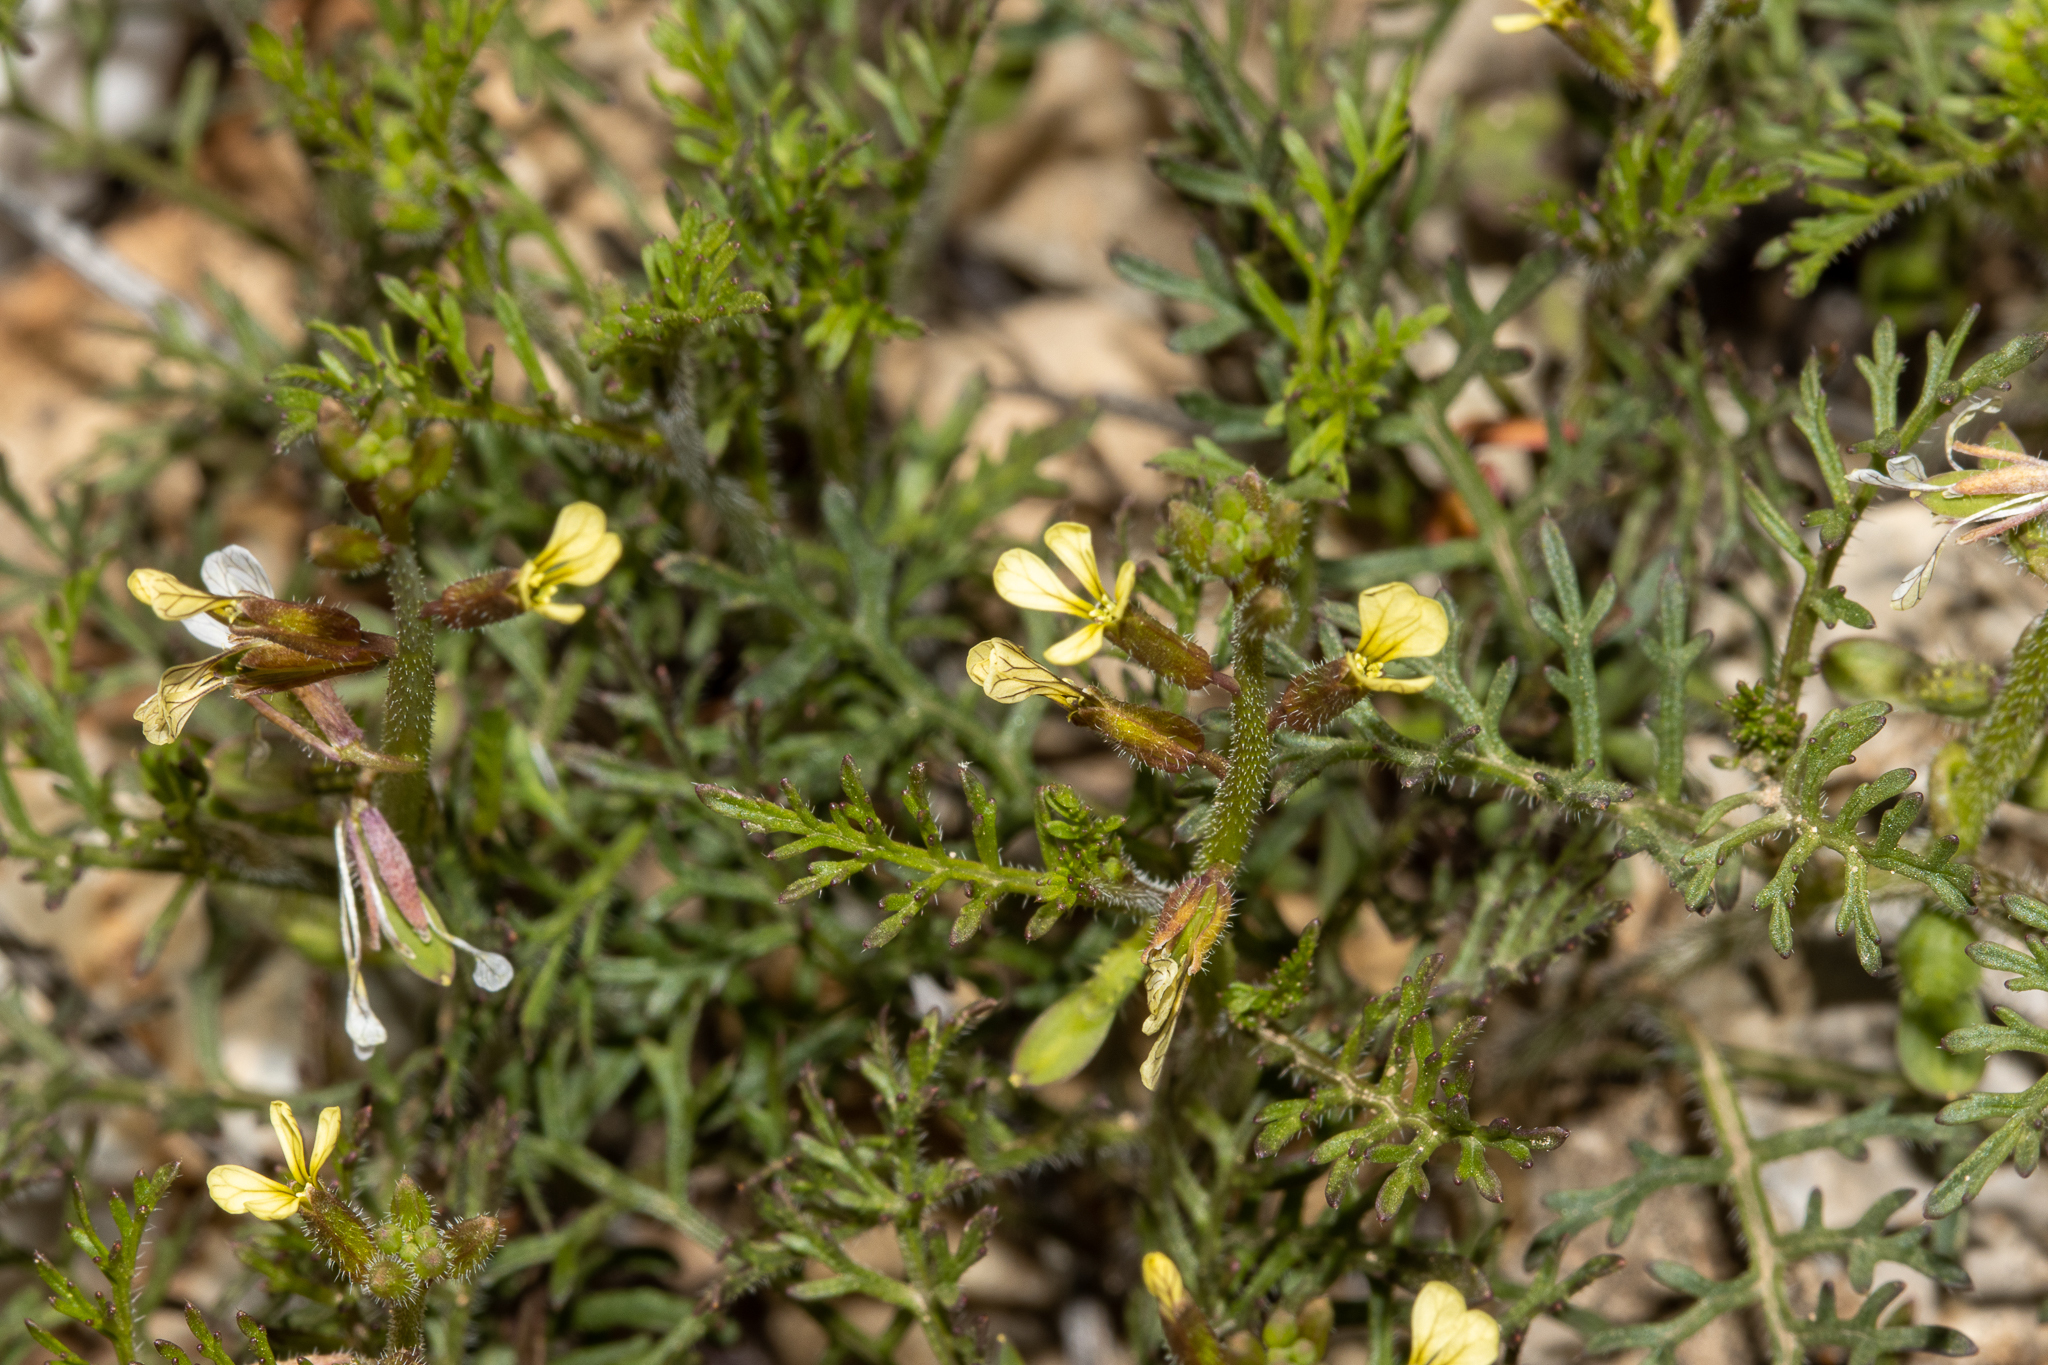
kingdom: Plantae
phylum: Tracheophyta
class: Magnoliopsida
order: Brassicales
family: Brassicaceae
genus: Carrichtera
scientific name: Carrichtera annua
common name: Cress rocket
